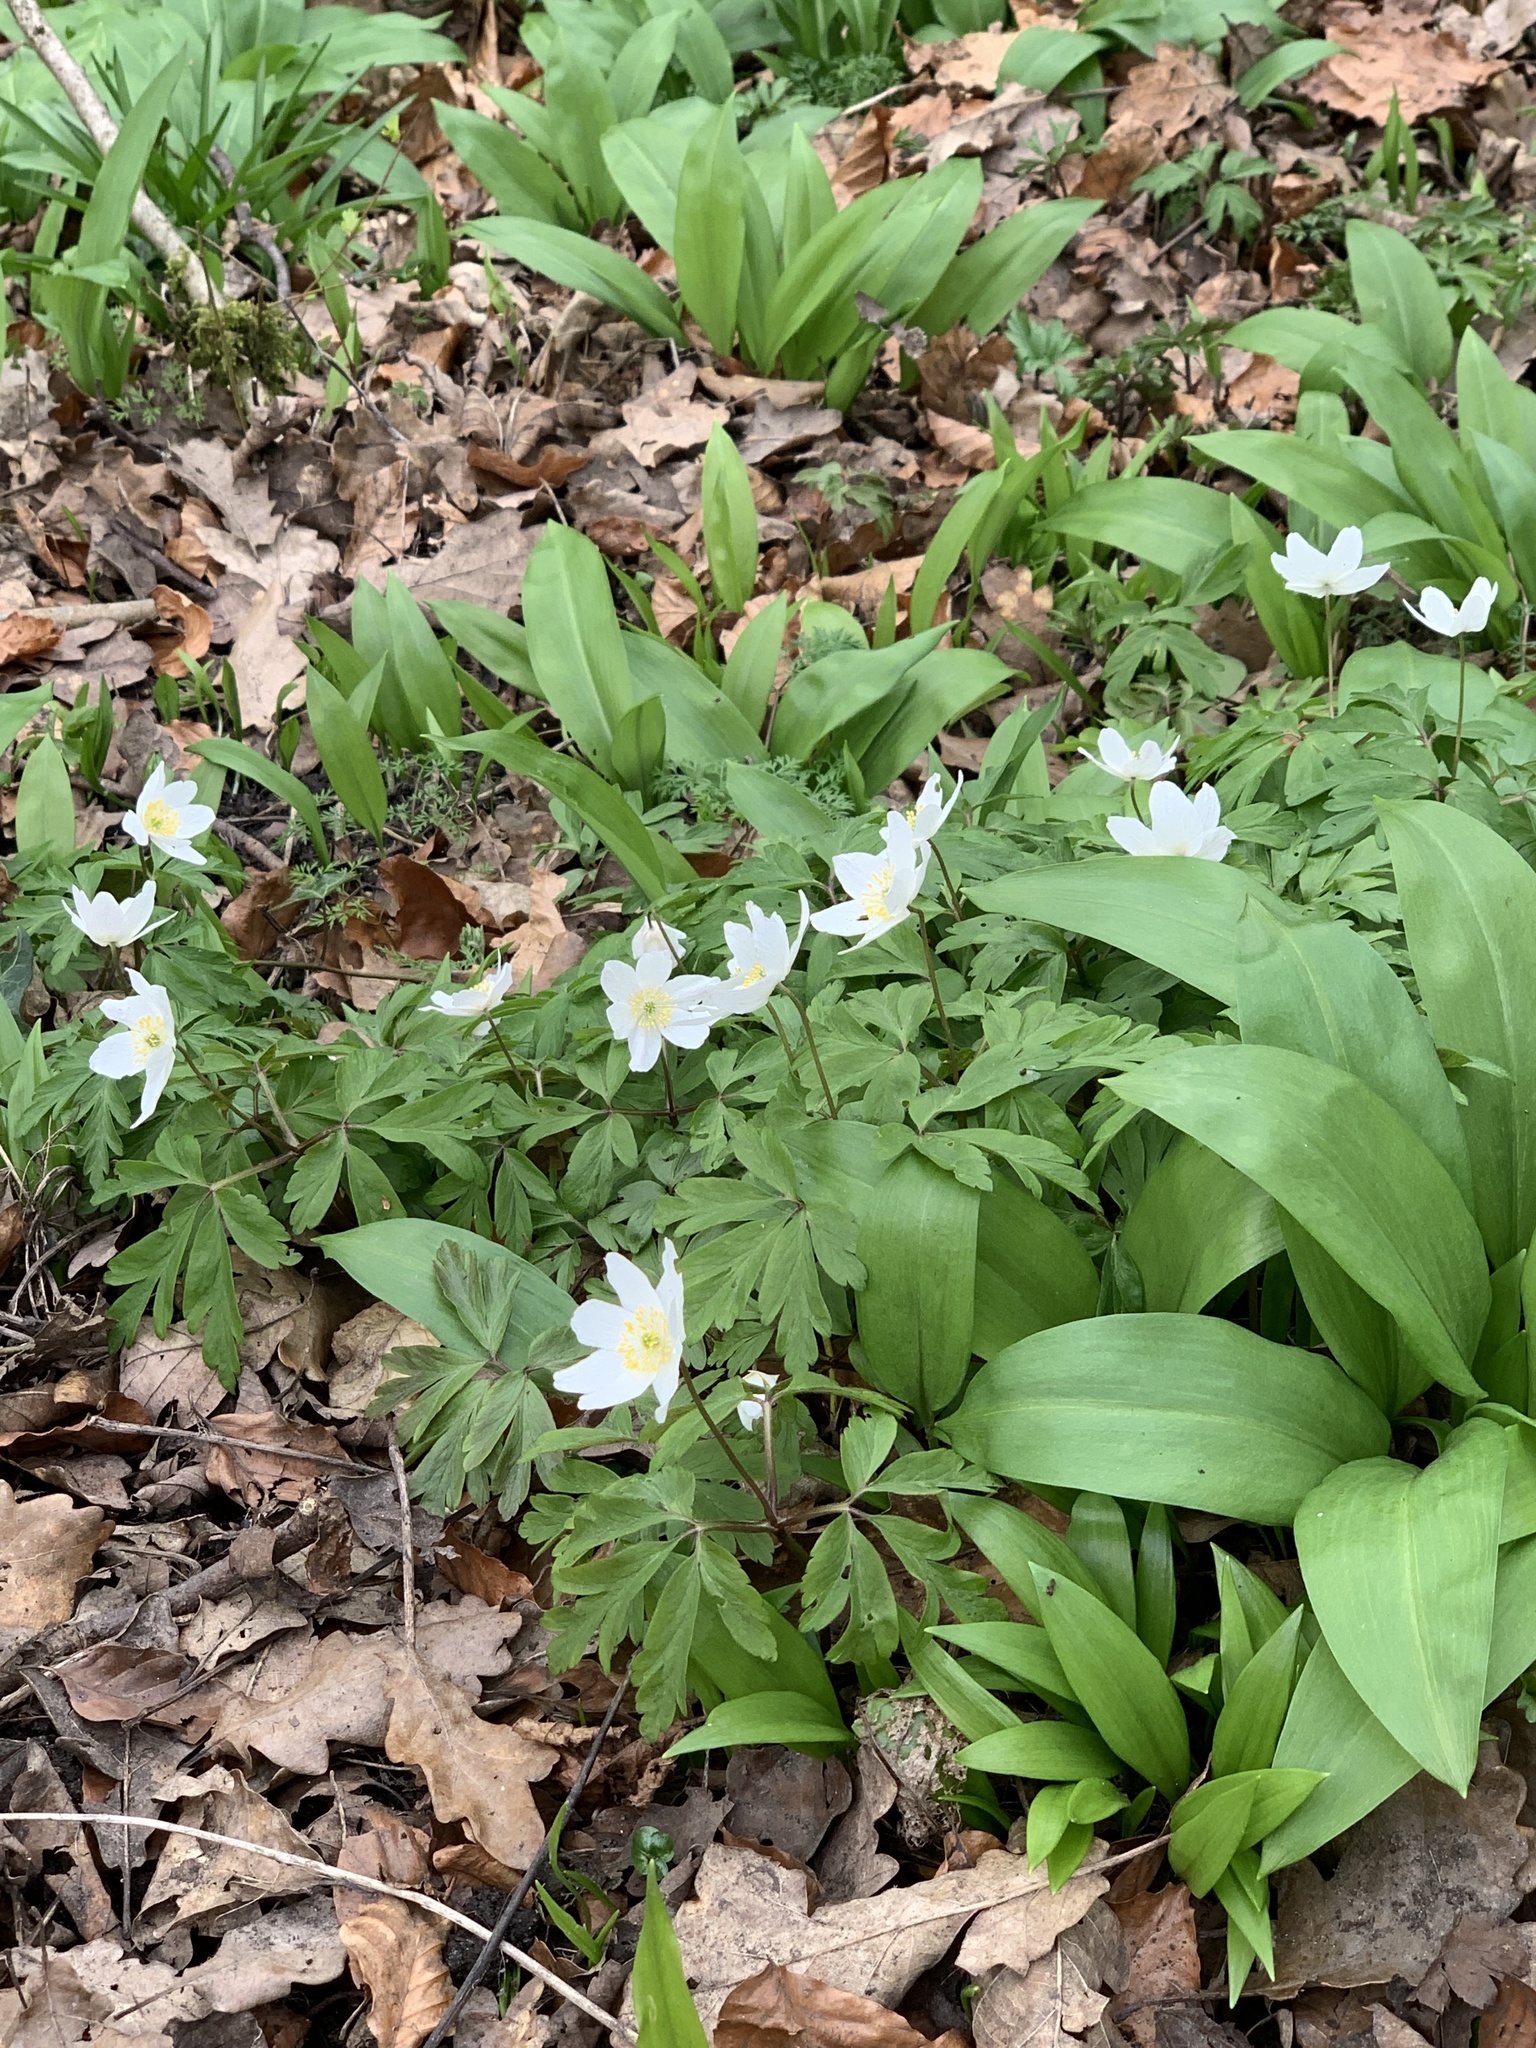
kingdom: Plantae
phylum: Tracheophyta
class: Magnoliopsida
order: Ranunculales
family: Ranunculaceae
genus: Anemone
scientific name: Anemone nemorosa
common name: Wood anemone
